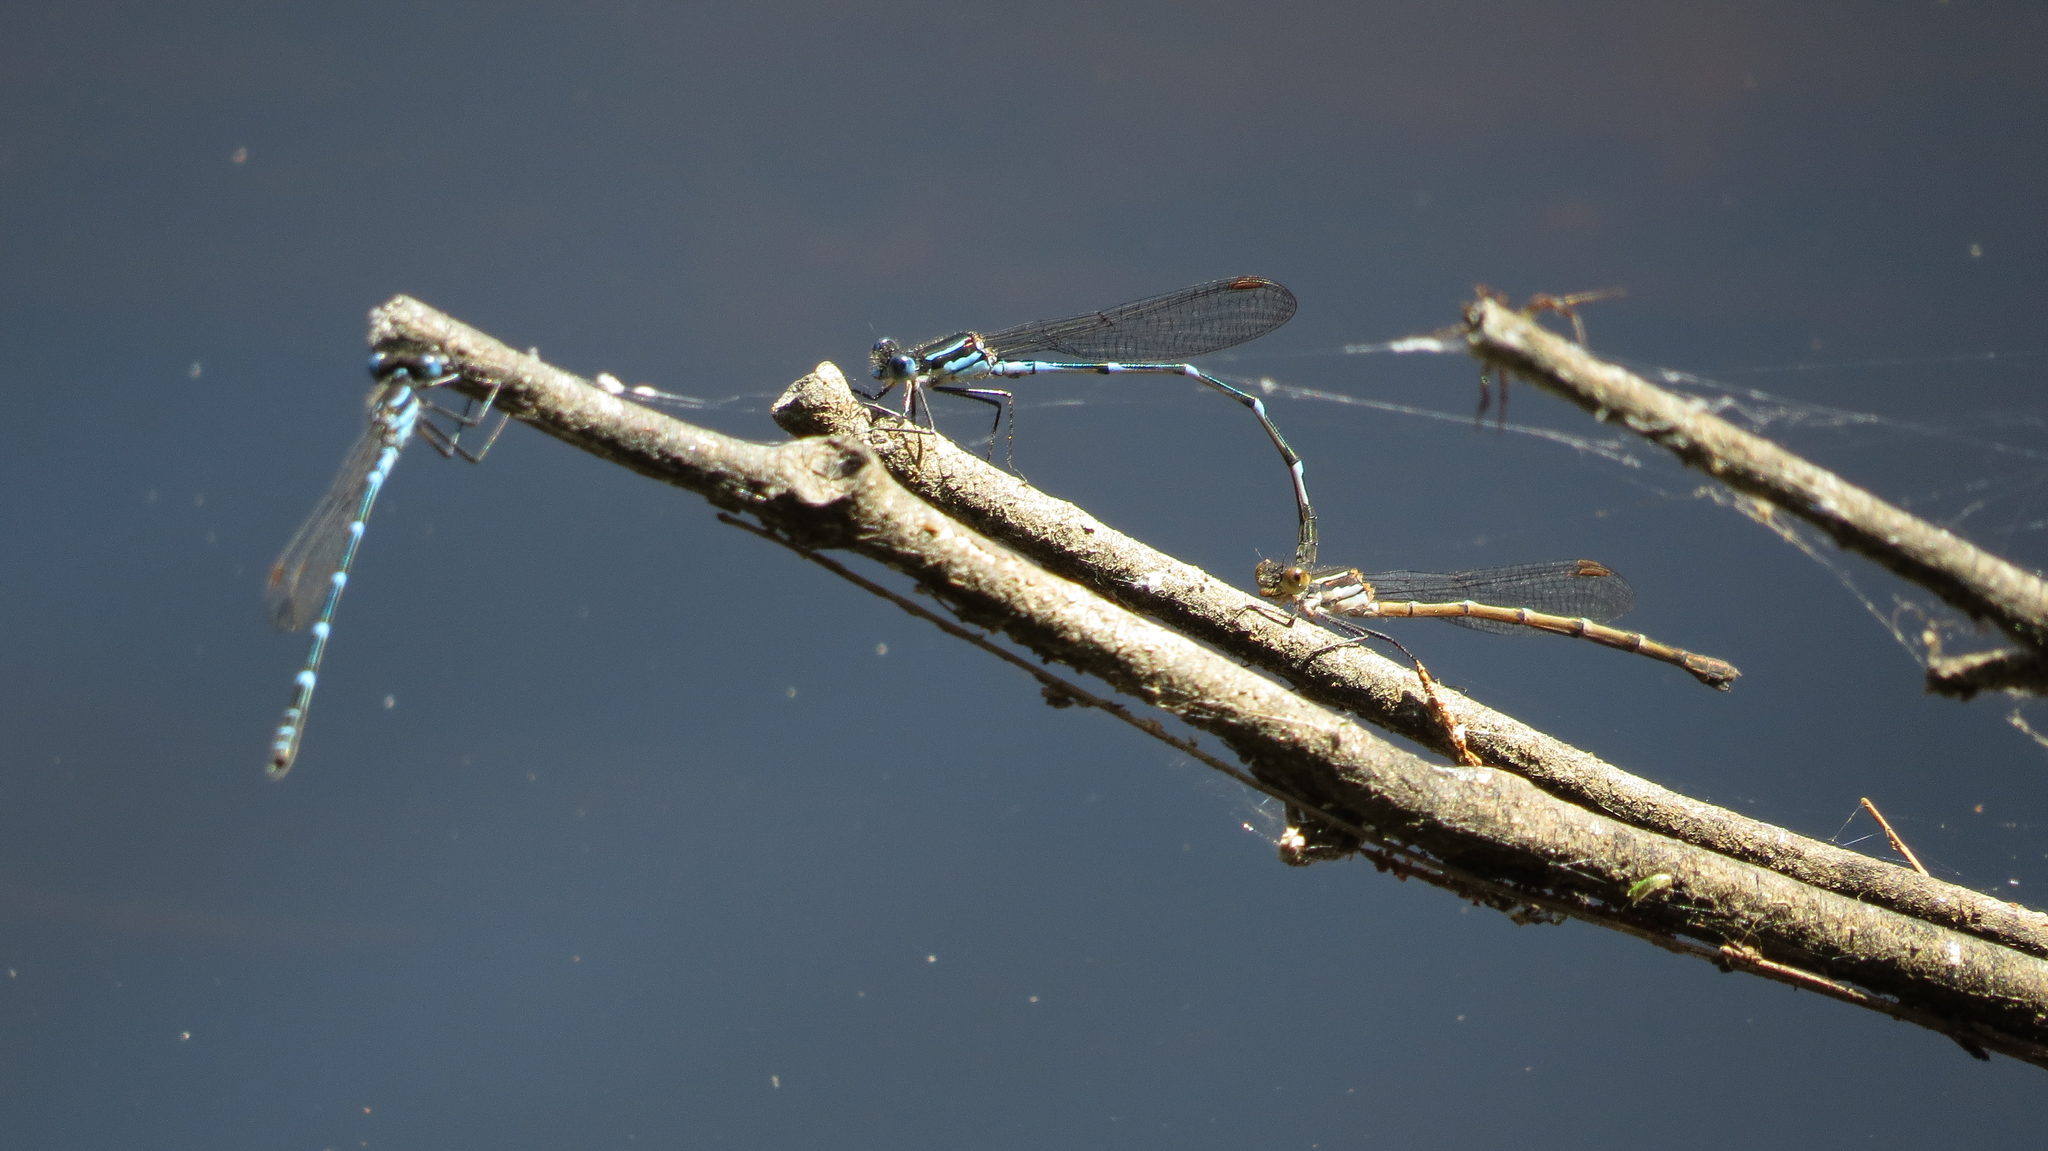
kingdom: Animalia
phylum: Arthropoda
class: Insecta
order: Odonata
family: Lestidae
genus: Austrolestes
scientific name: Austrolestes minjerriba
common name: Dune ringtail
